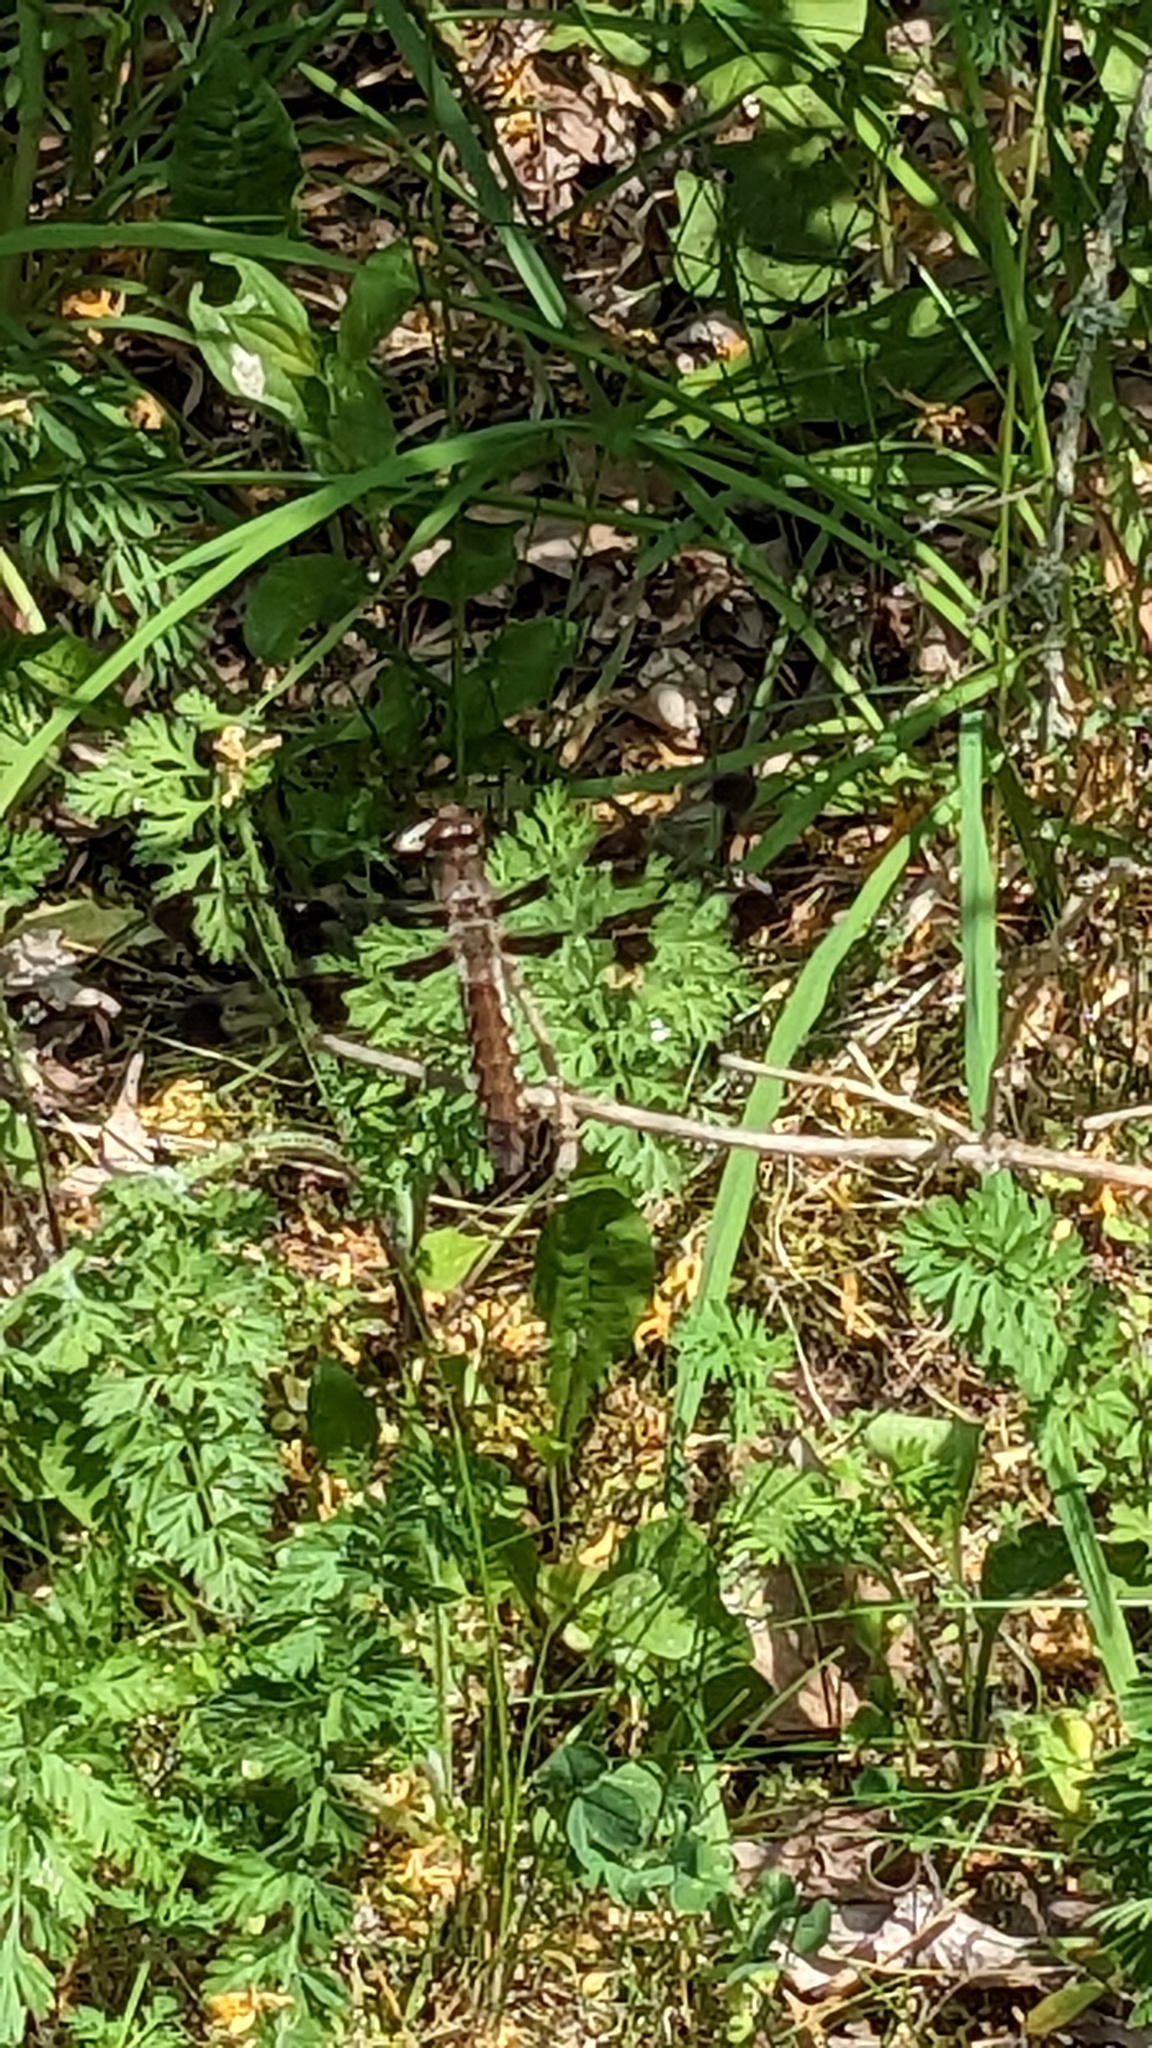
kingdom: Animalia
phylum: Arthropoda
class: Insecta
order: Odonata
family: Libellulidae
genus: Plathemis
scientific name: Plathemis lydia
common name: Common whitetail
